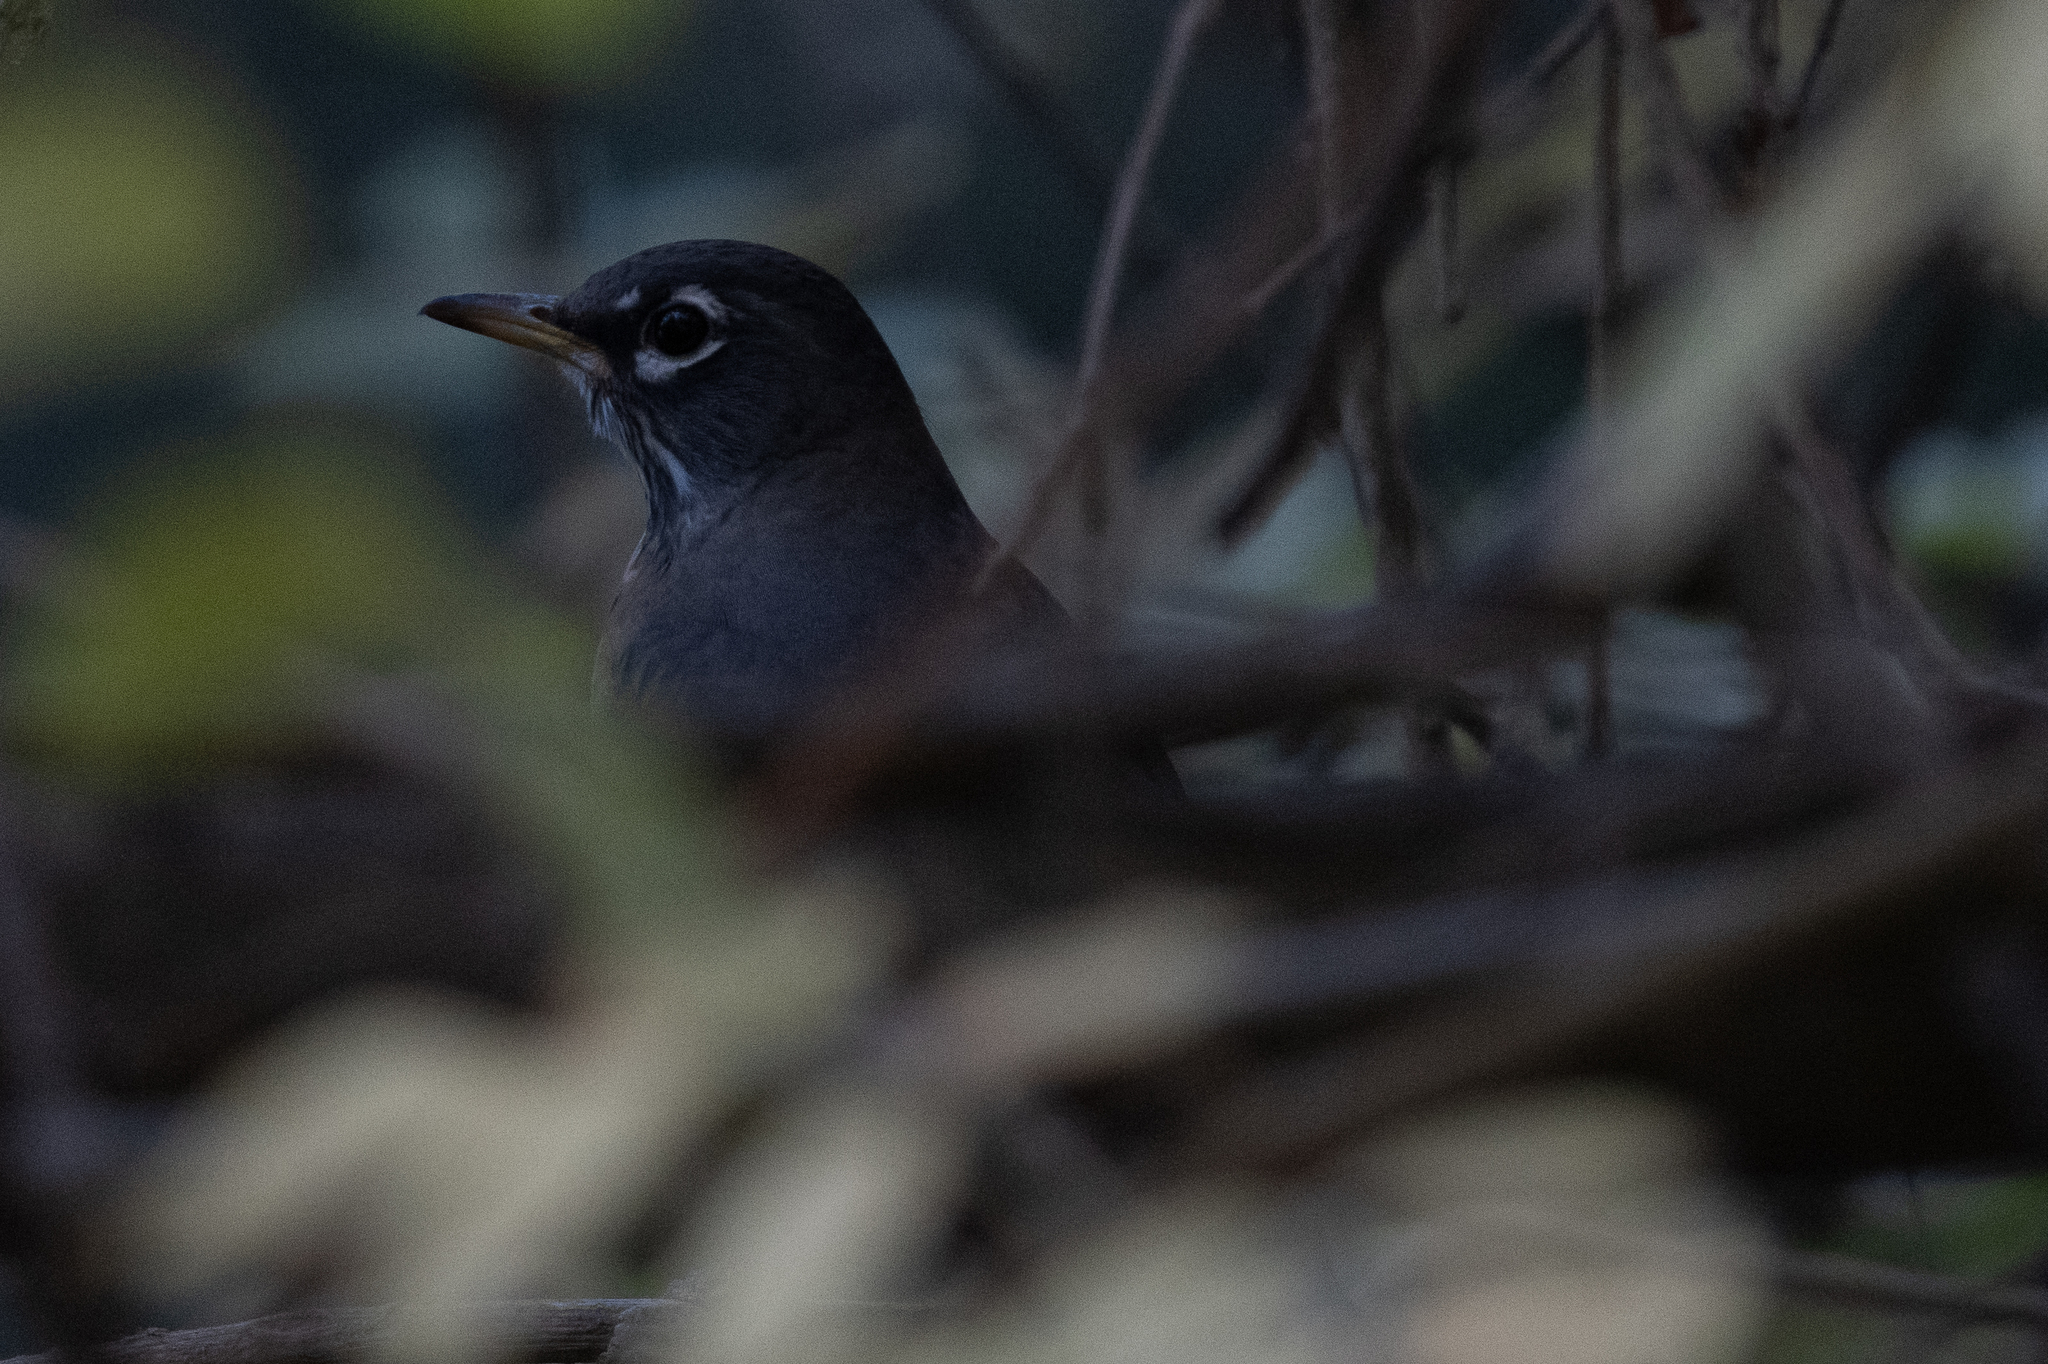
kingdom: Animalia
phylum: Chordata
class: Aves
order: Passeriformes
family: Turdidae
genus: Turdus
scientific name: Turdus migratorius
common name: American robin
